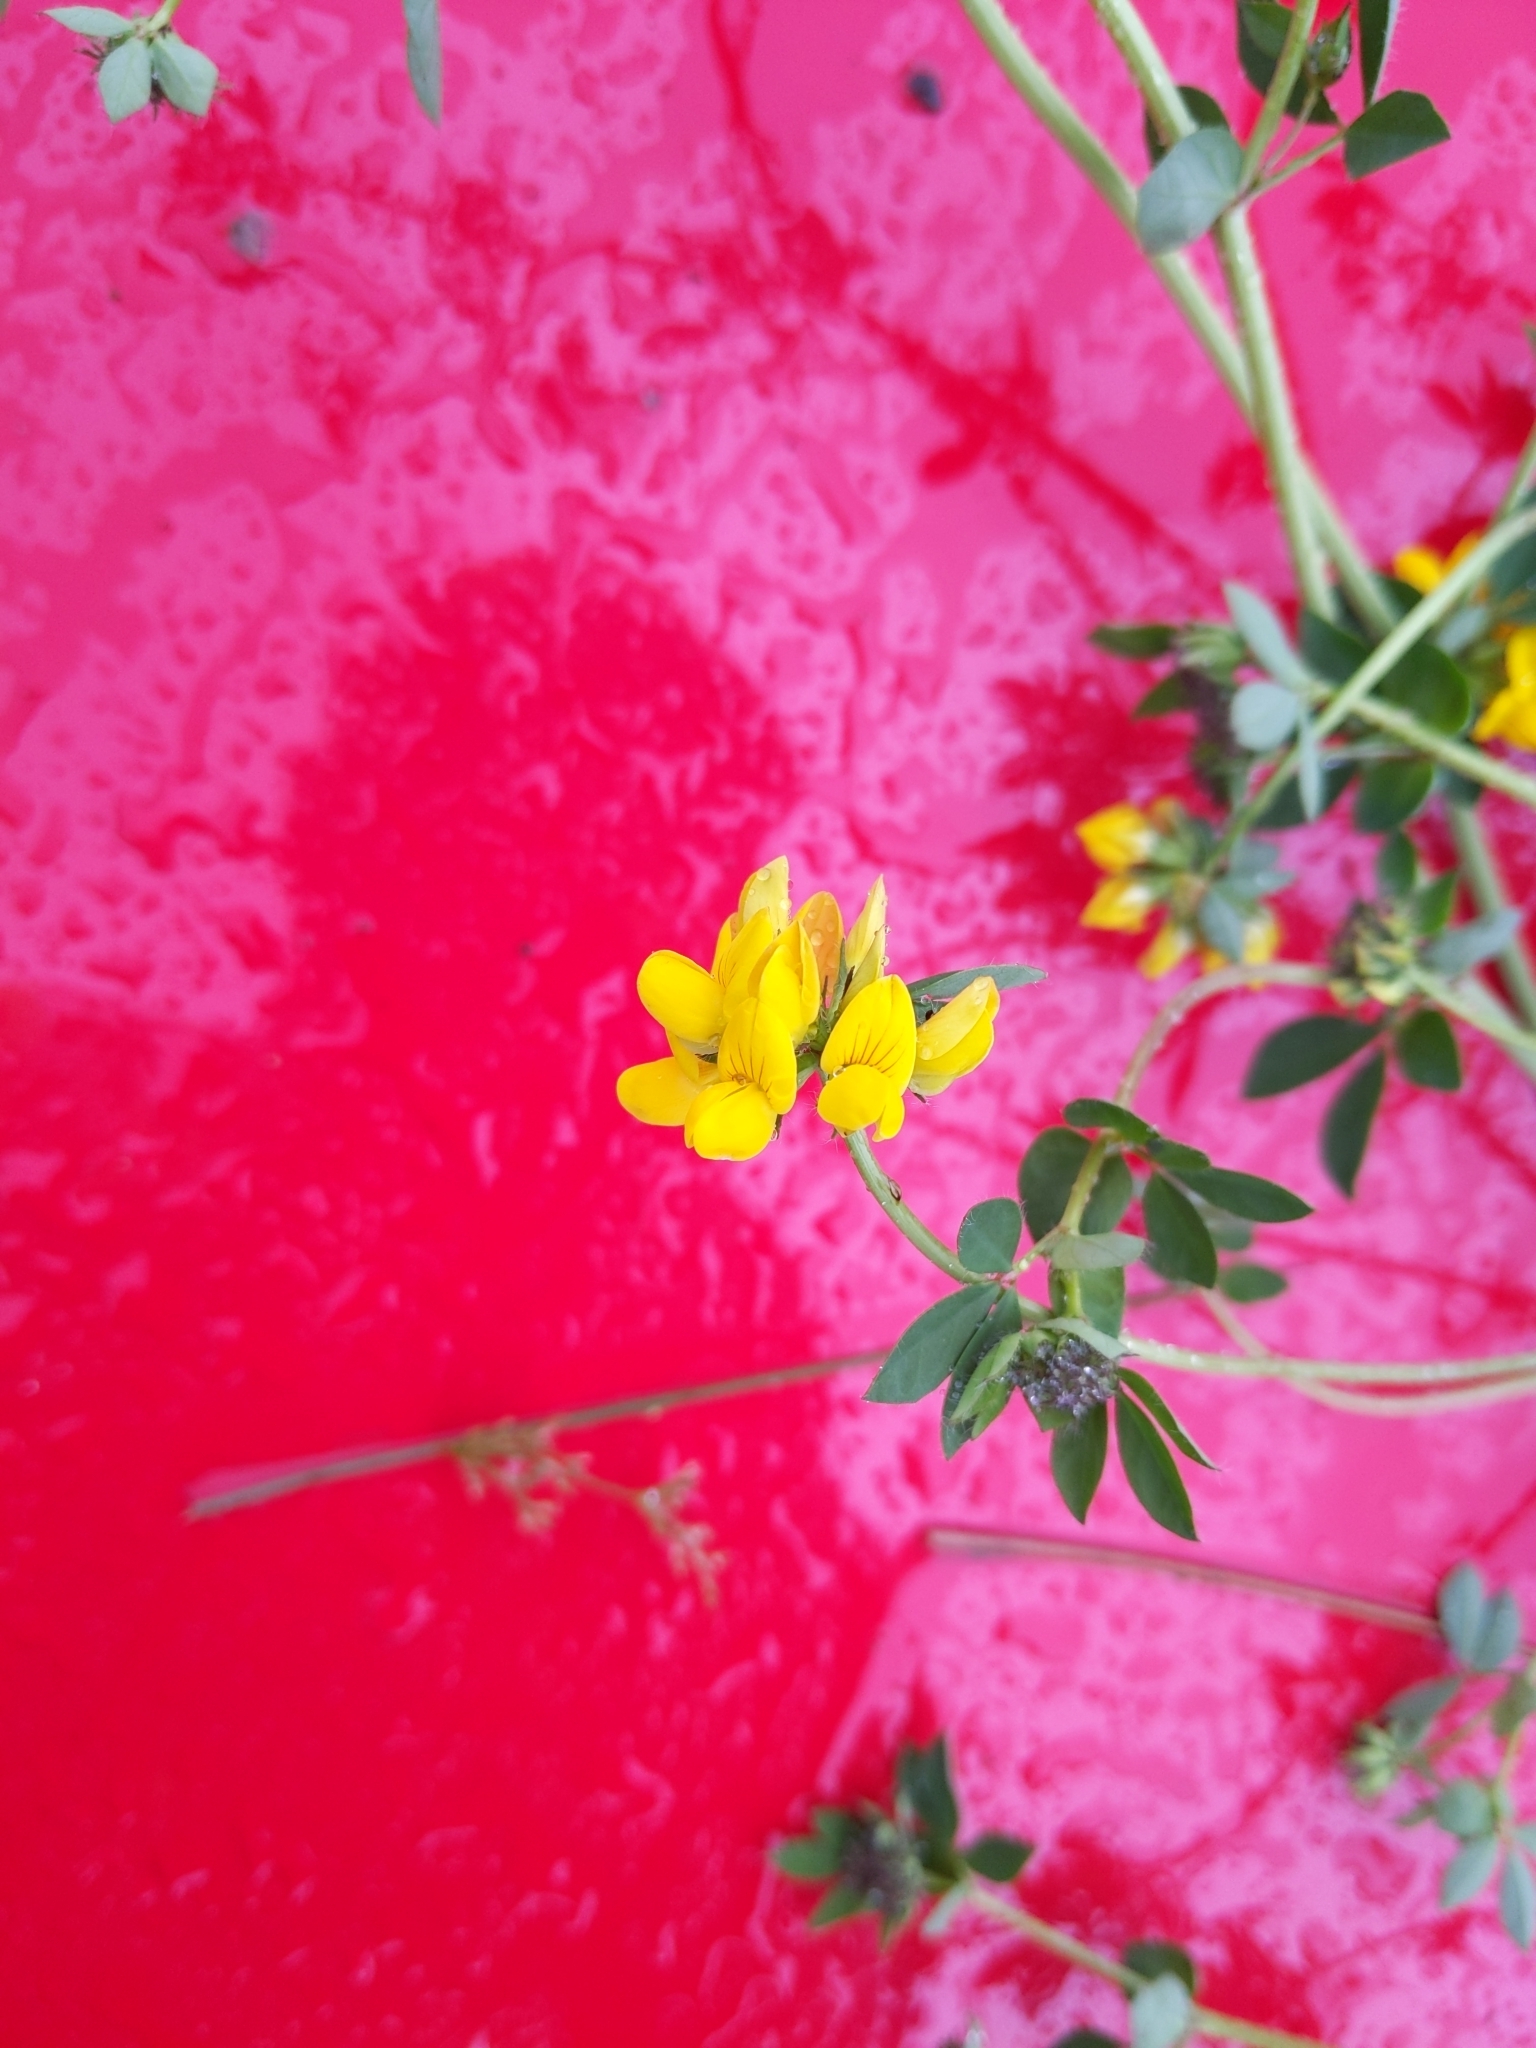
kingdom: Plantae
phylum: Tracheophyta
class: Magnoliopsida
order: Fabales
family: Fabaceae
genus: Lotus
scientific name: Lotus pedunculatus
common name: Greater birdsfoot-trefoil
